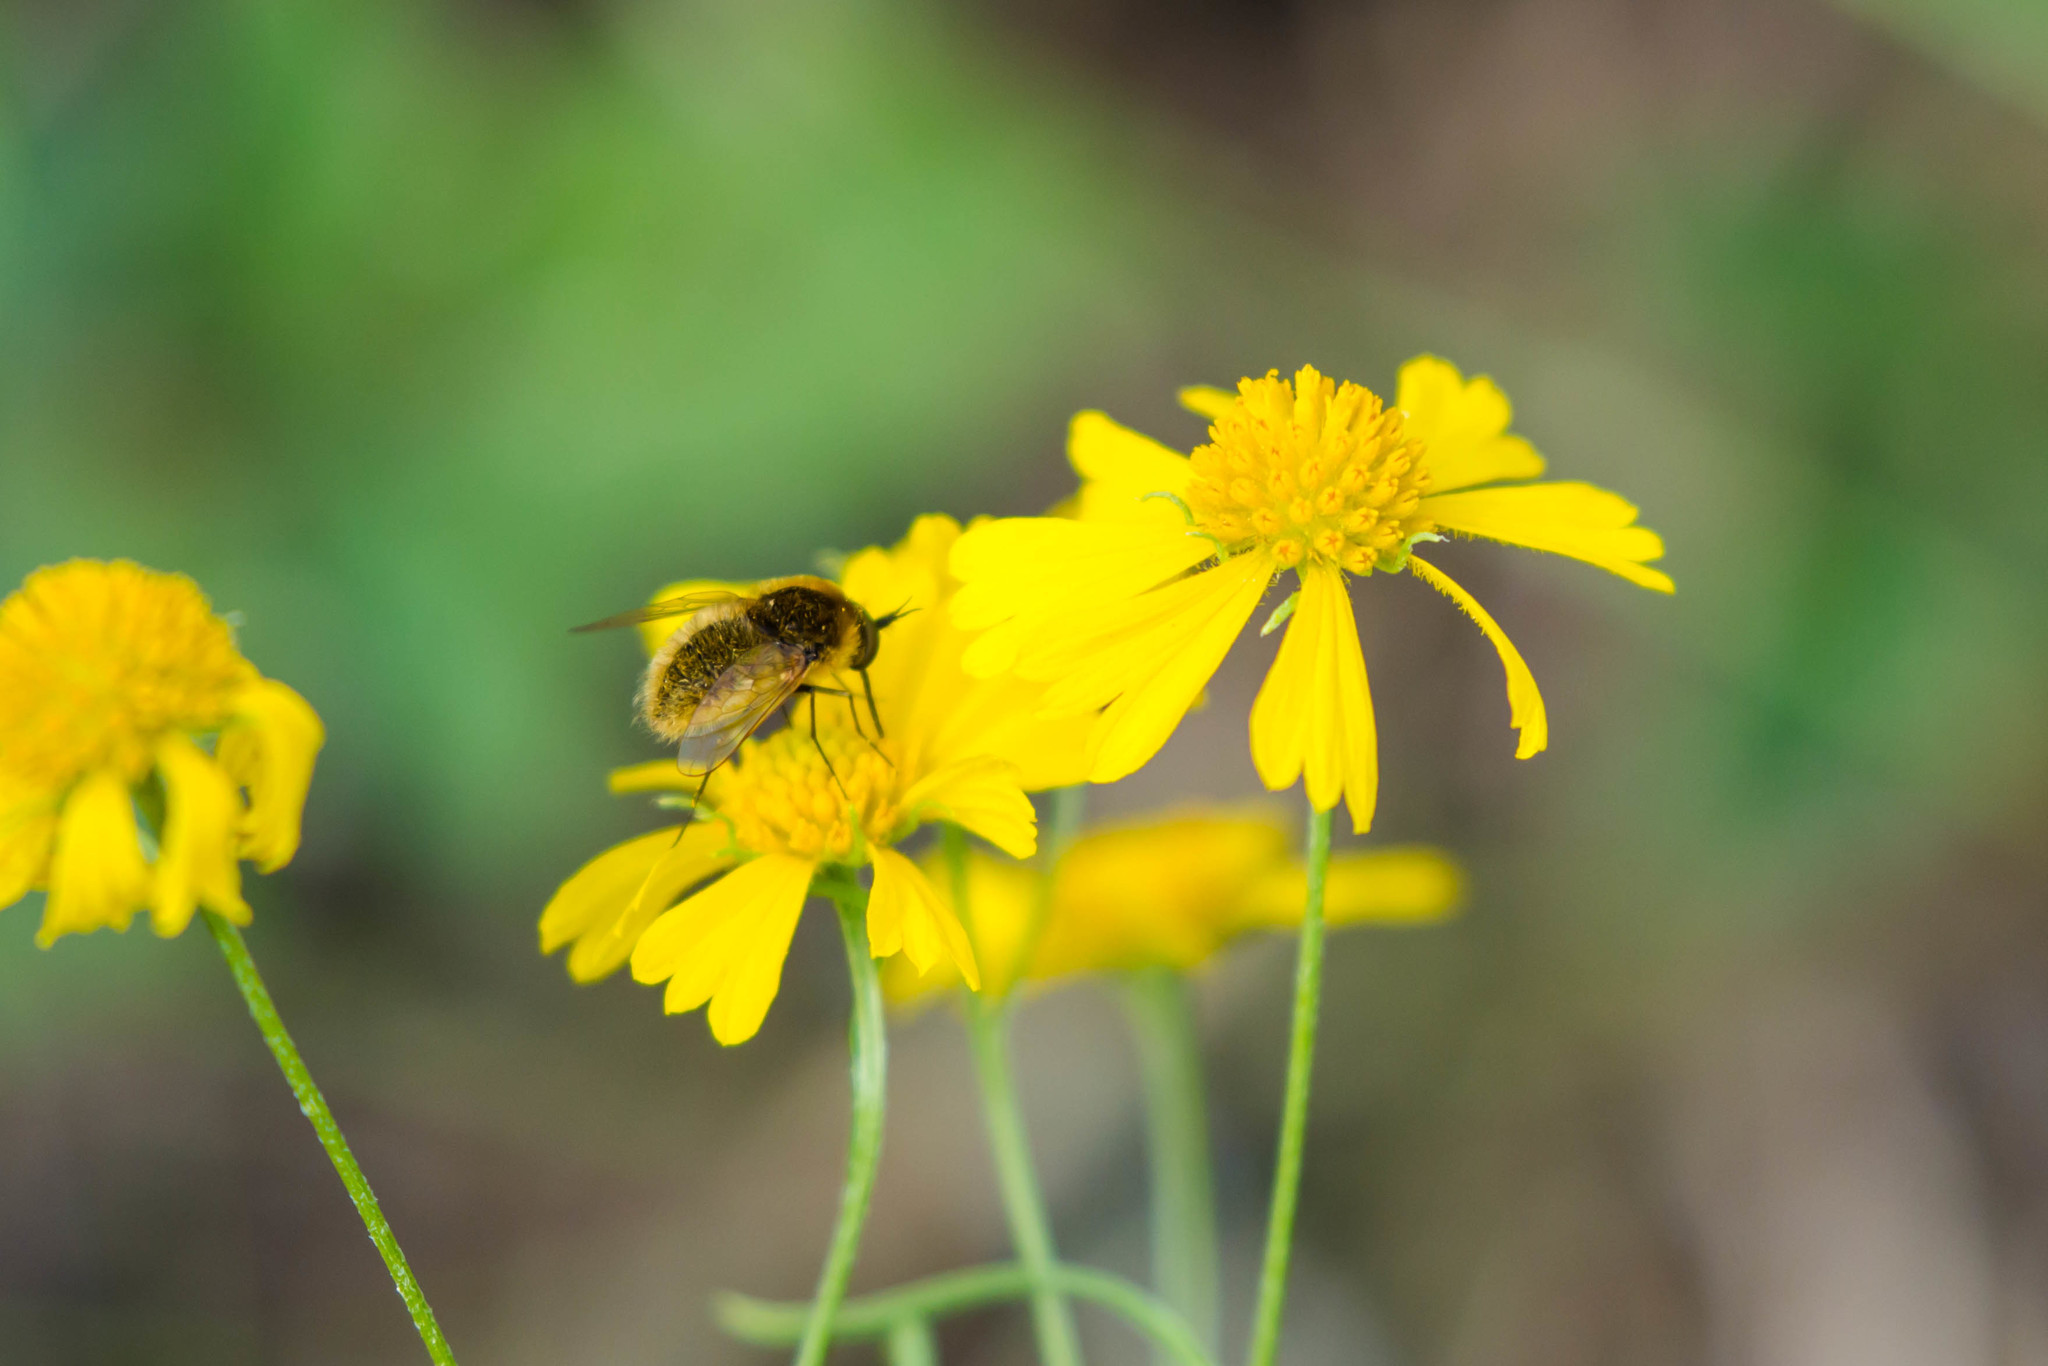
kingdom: Animalia
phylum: Arthropoda
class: Insecta
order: Diptera
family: Bombyliidae
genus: Sparnopolius
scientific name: Sparnopolius confusus
